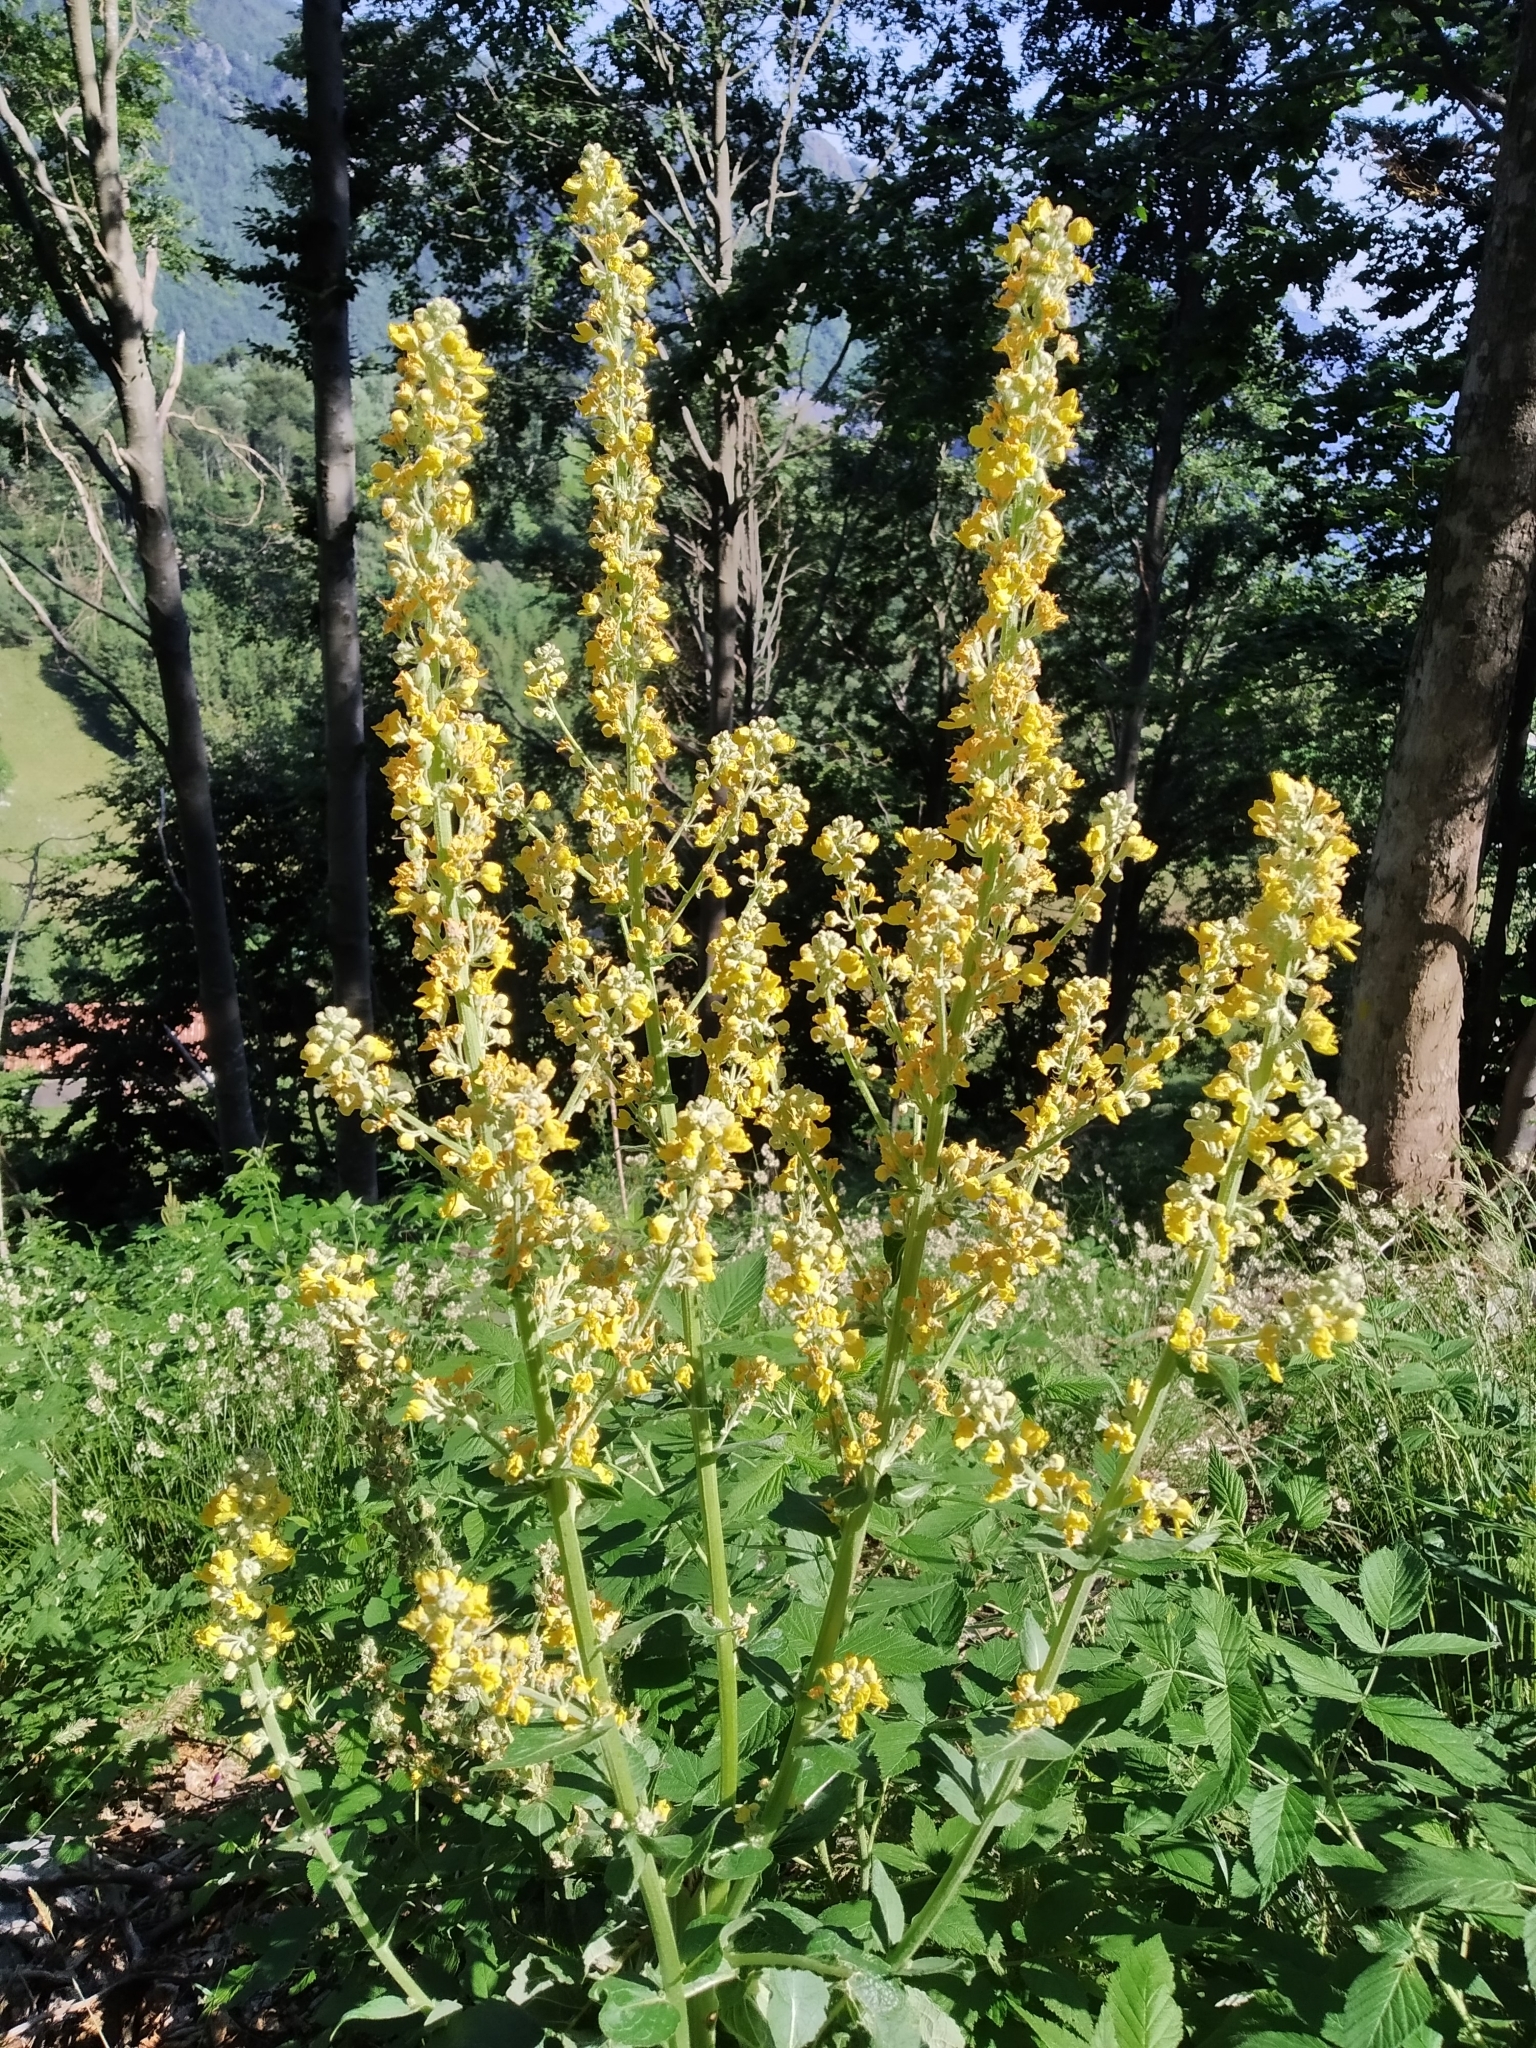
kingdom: Plantae
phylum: Tracheophyta
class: Magnoliopsida
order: Lamiales
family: Scrophulariaceae
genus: Verbascum
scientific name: Verbascum lychnitis
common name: White mullein
